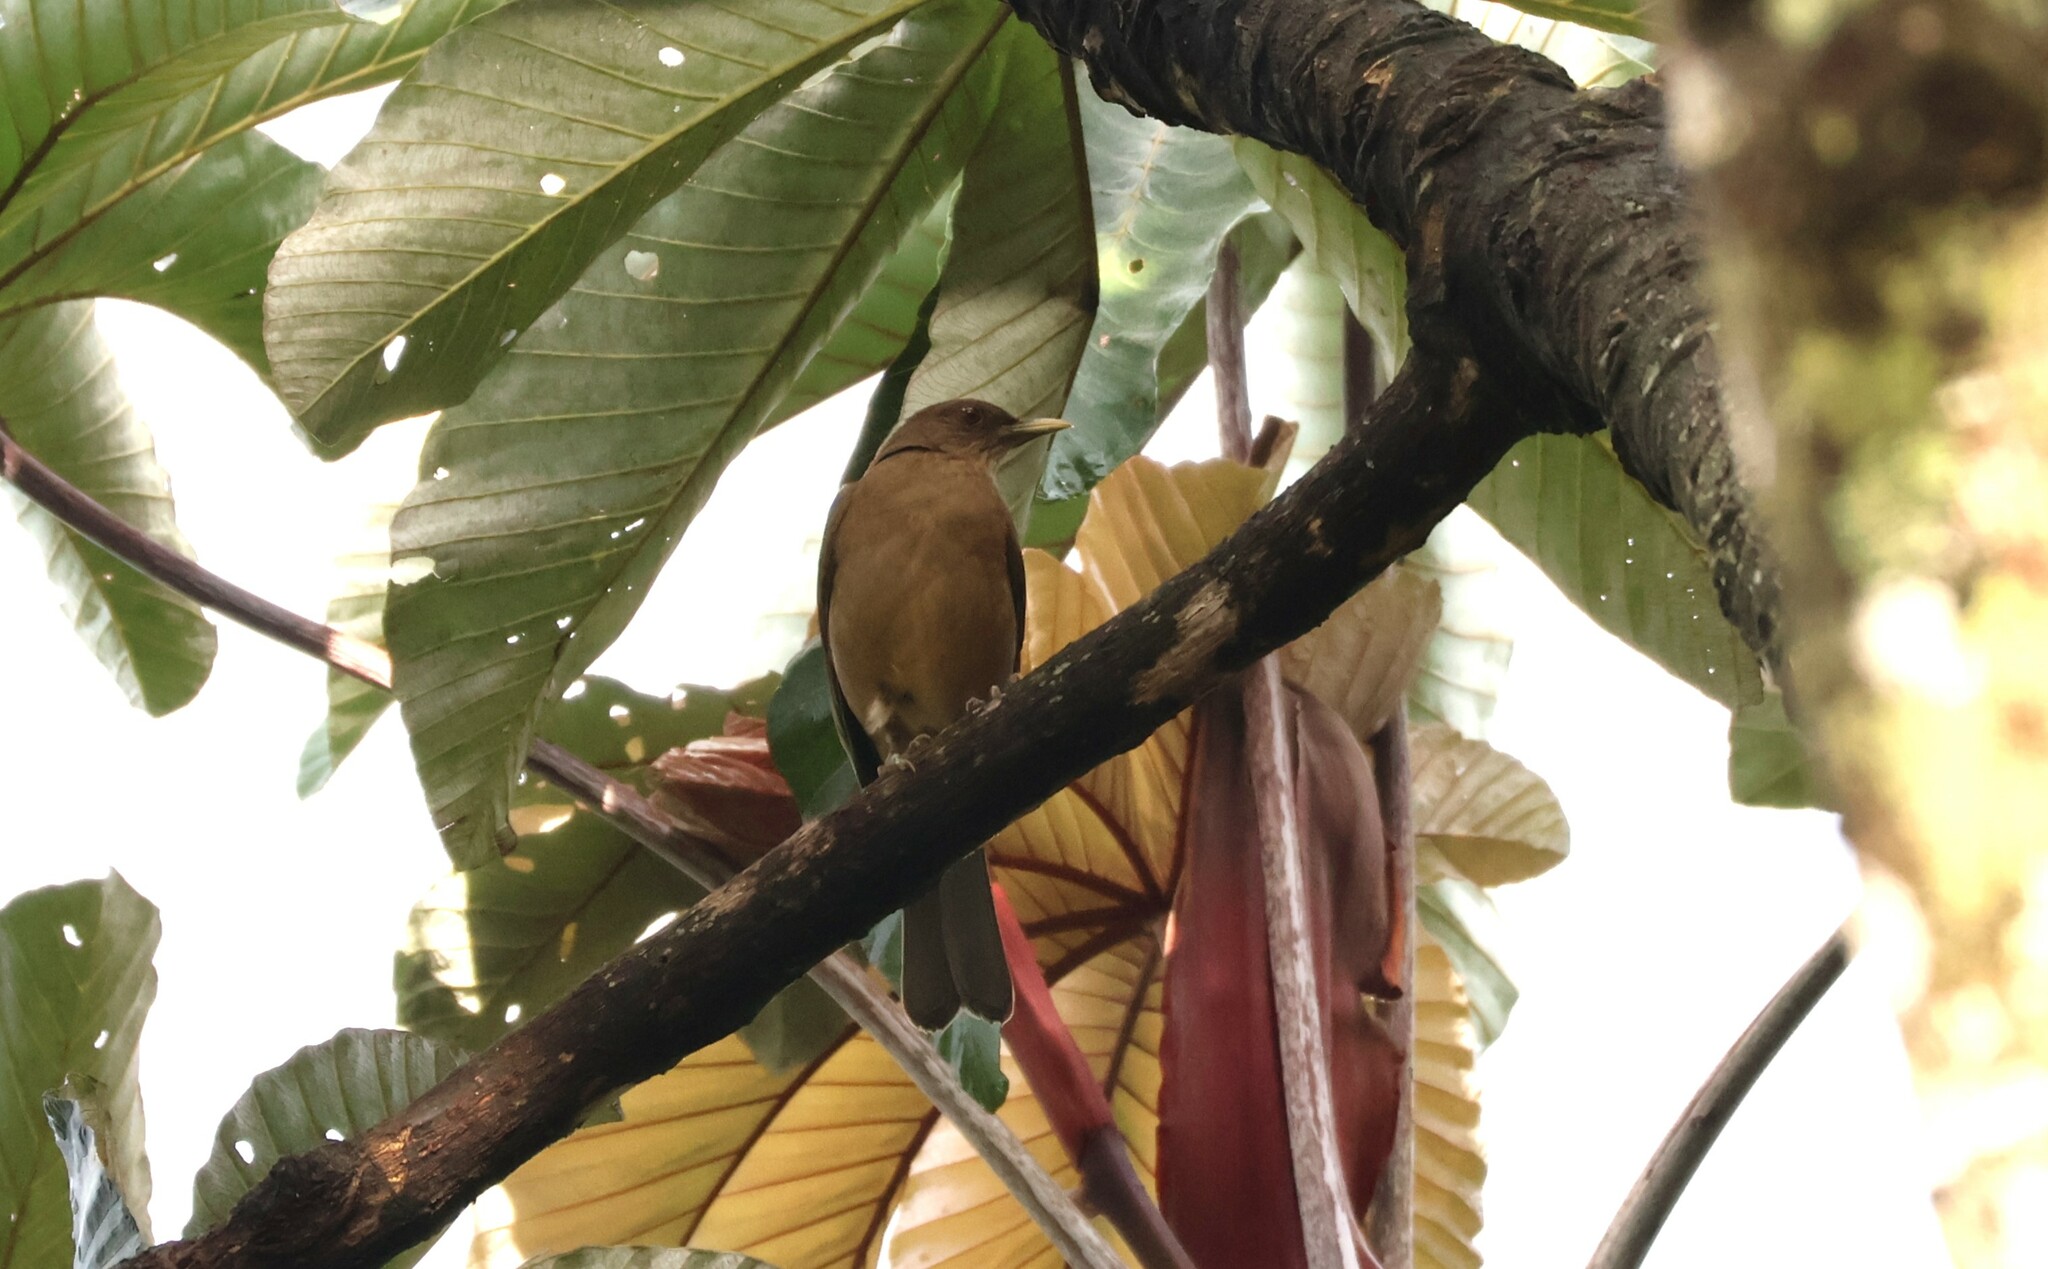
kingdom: Animalia
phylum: Chordata
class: Aves
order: Passeriformes
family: Turdidae
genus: Turdus
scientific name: Turdus grayi
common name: Clay-colored thrush
